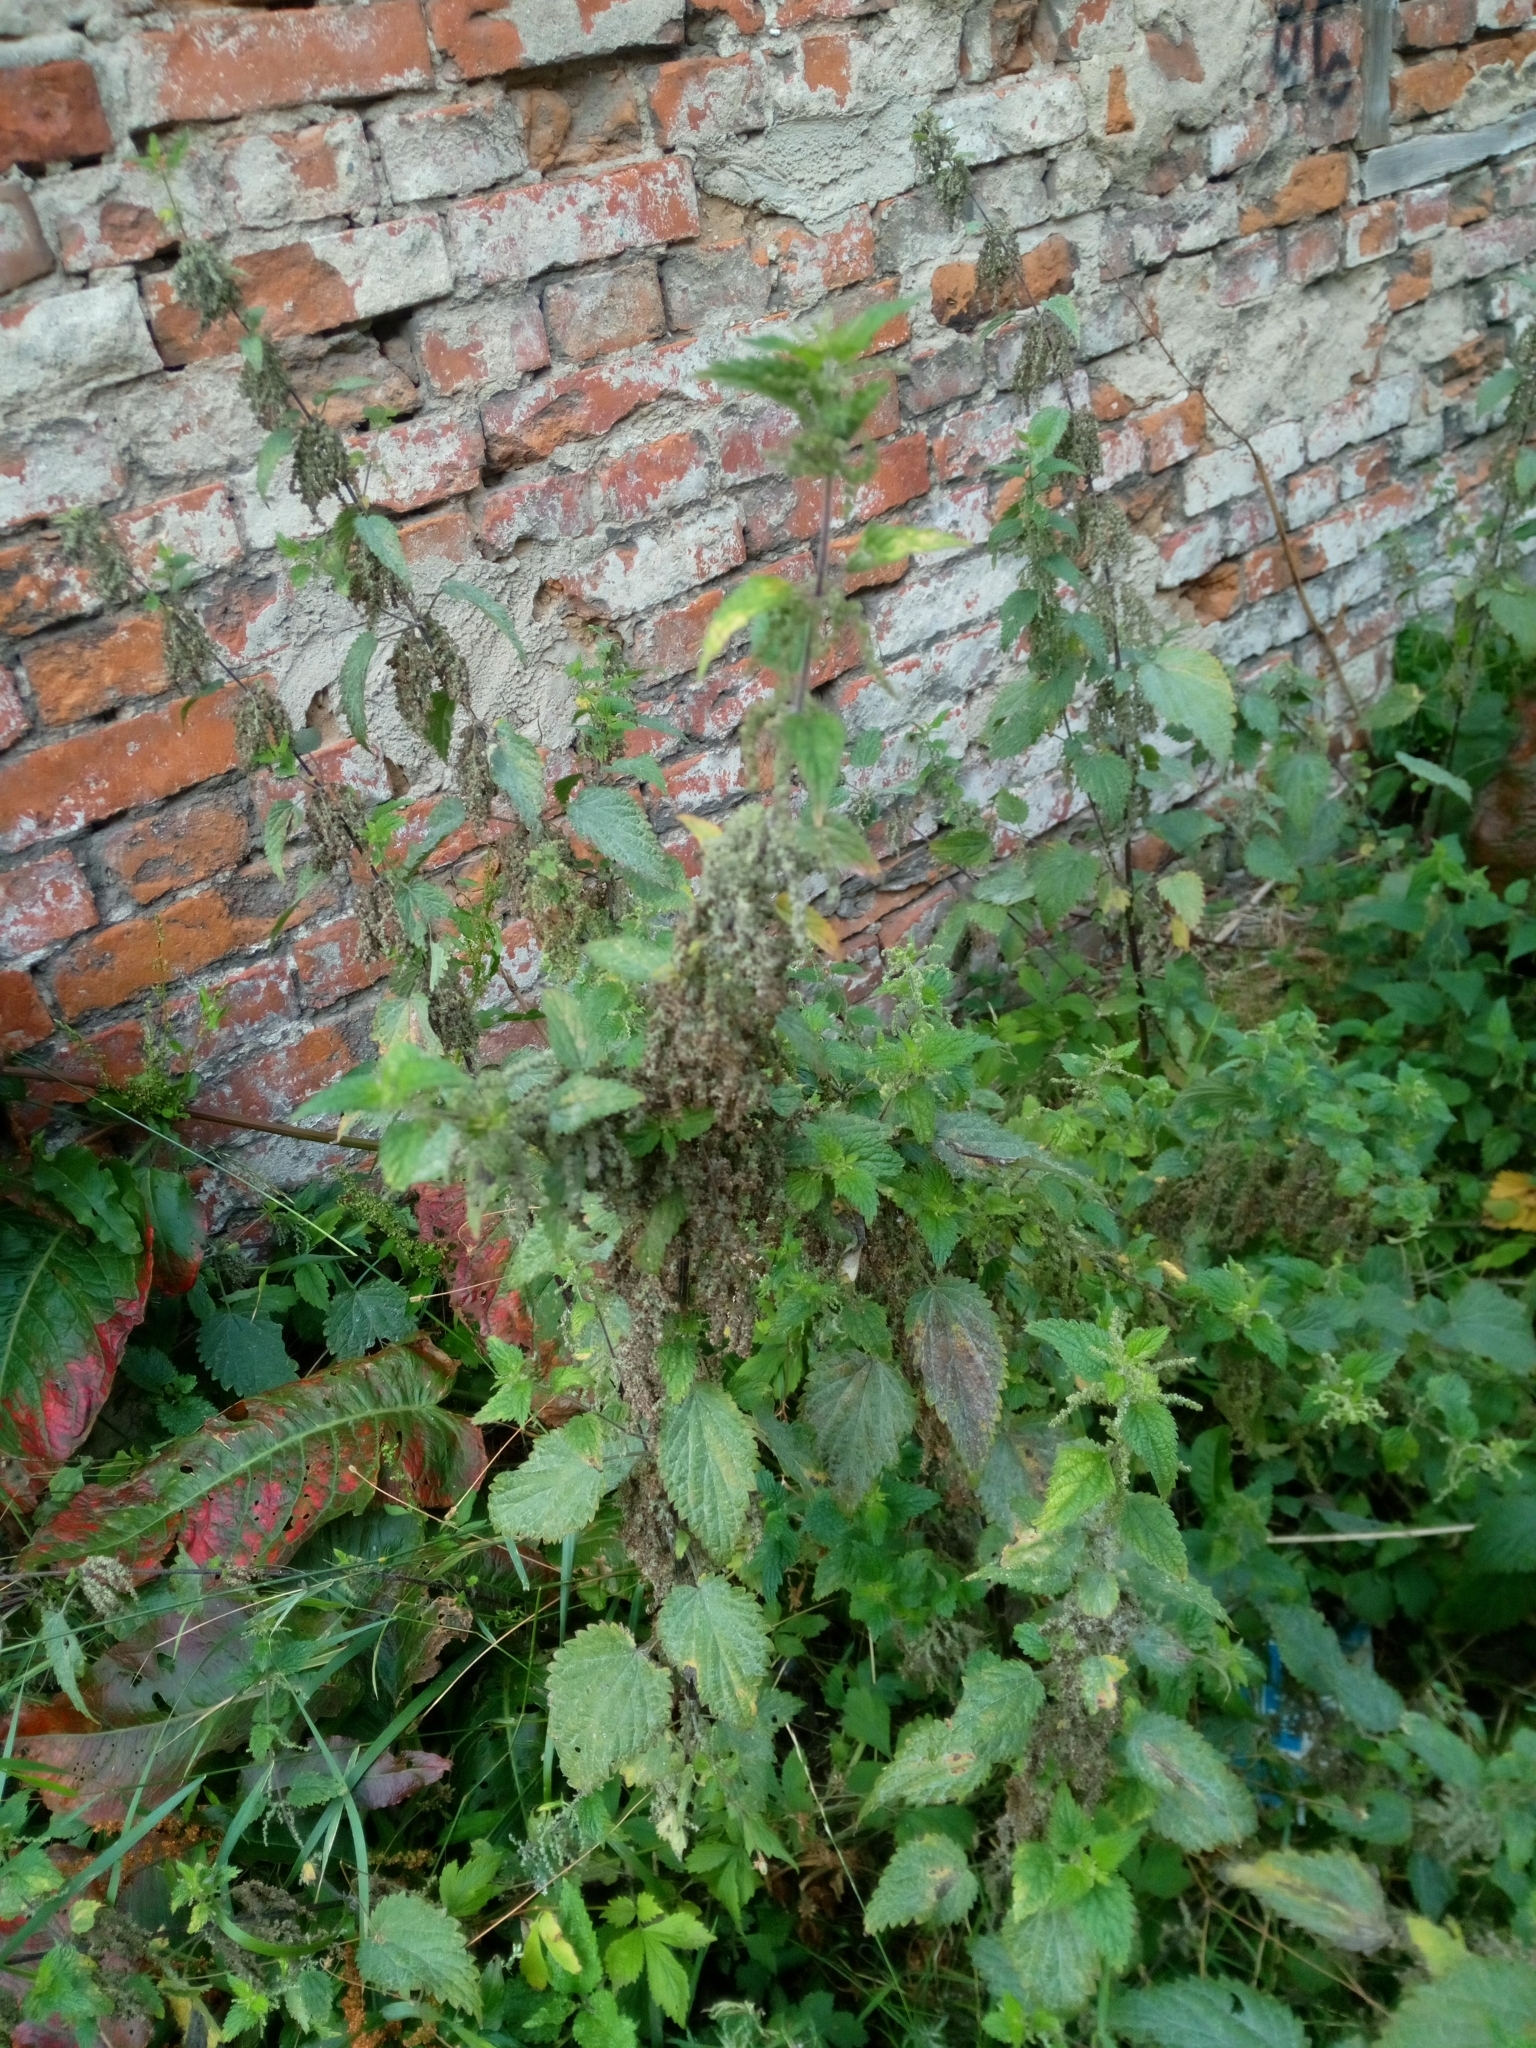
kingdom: Plantae
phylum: Tracheophyta
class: Magnoliopsida
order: Rosales
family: Urticaceae
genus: Urtica
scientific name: Urtica dioica
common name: Common nettle
